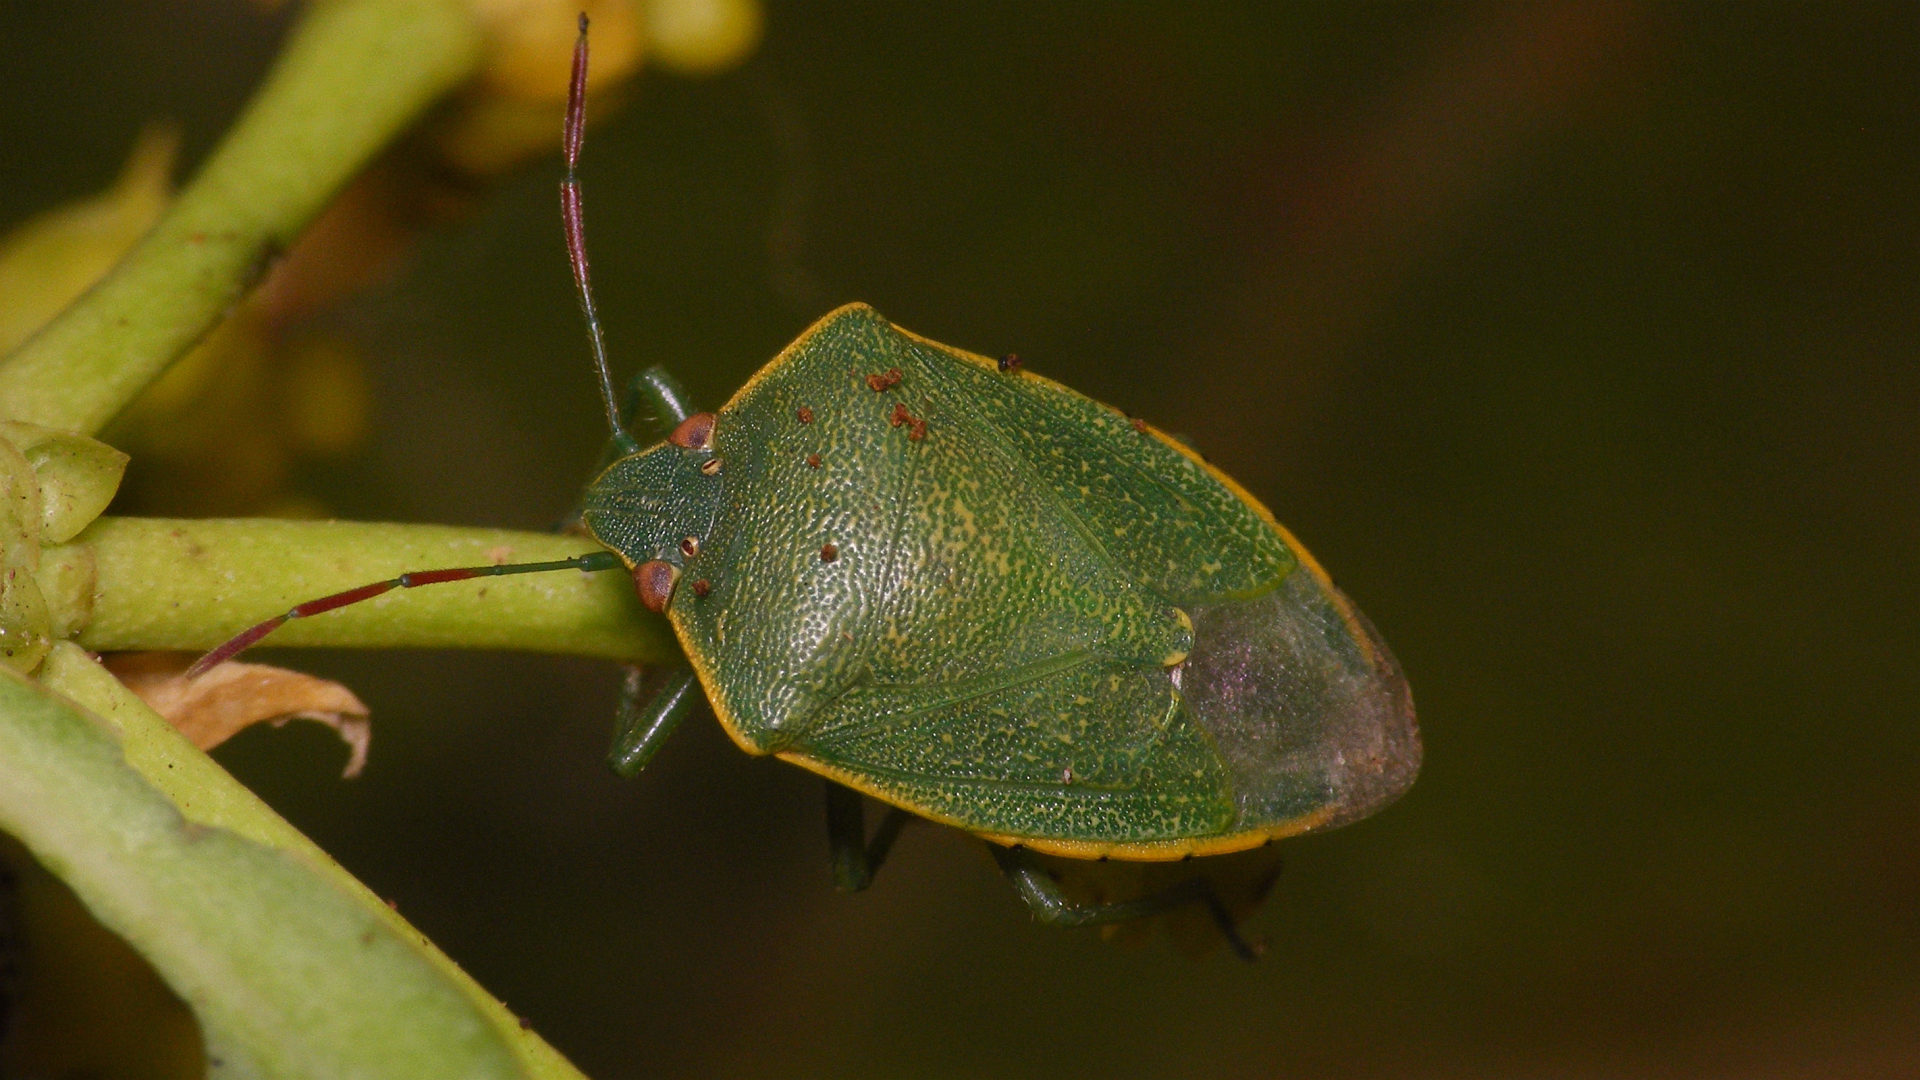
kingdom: Animalia
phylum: Arthropoda
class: Insecta
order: Hemiptera
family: Pentatomidae
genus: Acrosternum
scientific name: Acrosternum rubescens
